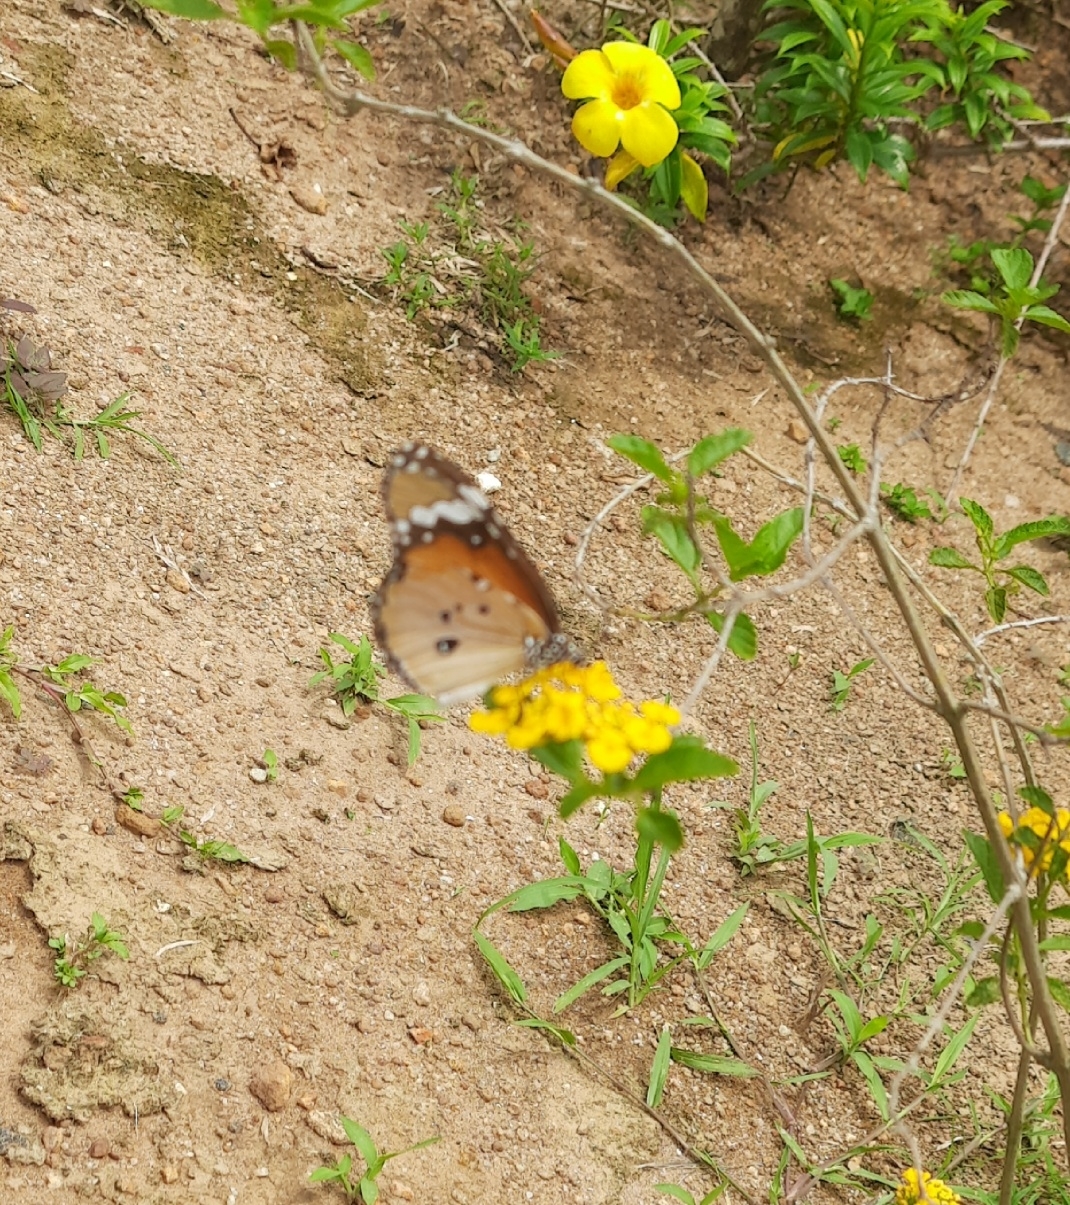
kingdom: Animalia
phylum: Arthropoda
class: Insecta
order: Lepidoptera
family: Nymphalidae
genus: Danaus
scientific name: Danaus chrysippus
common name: Plain tiger
